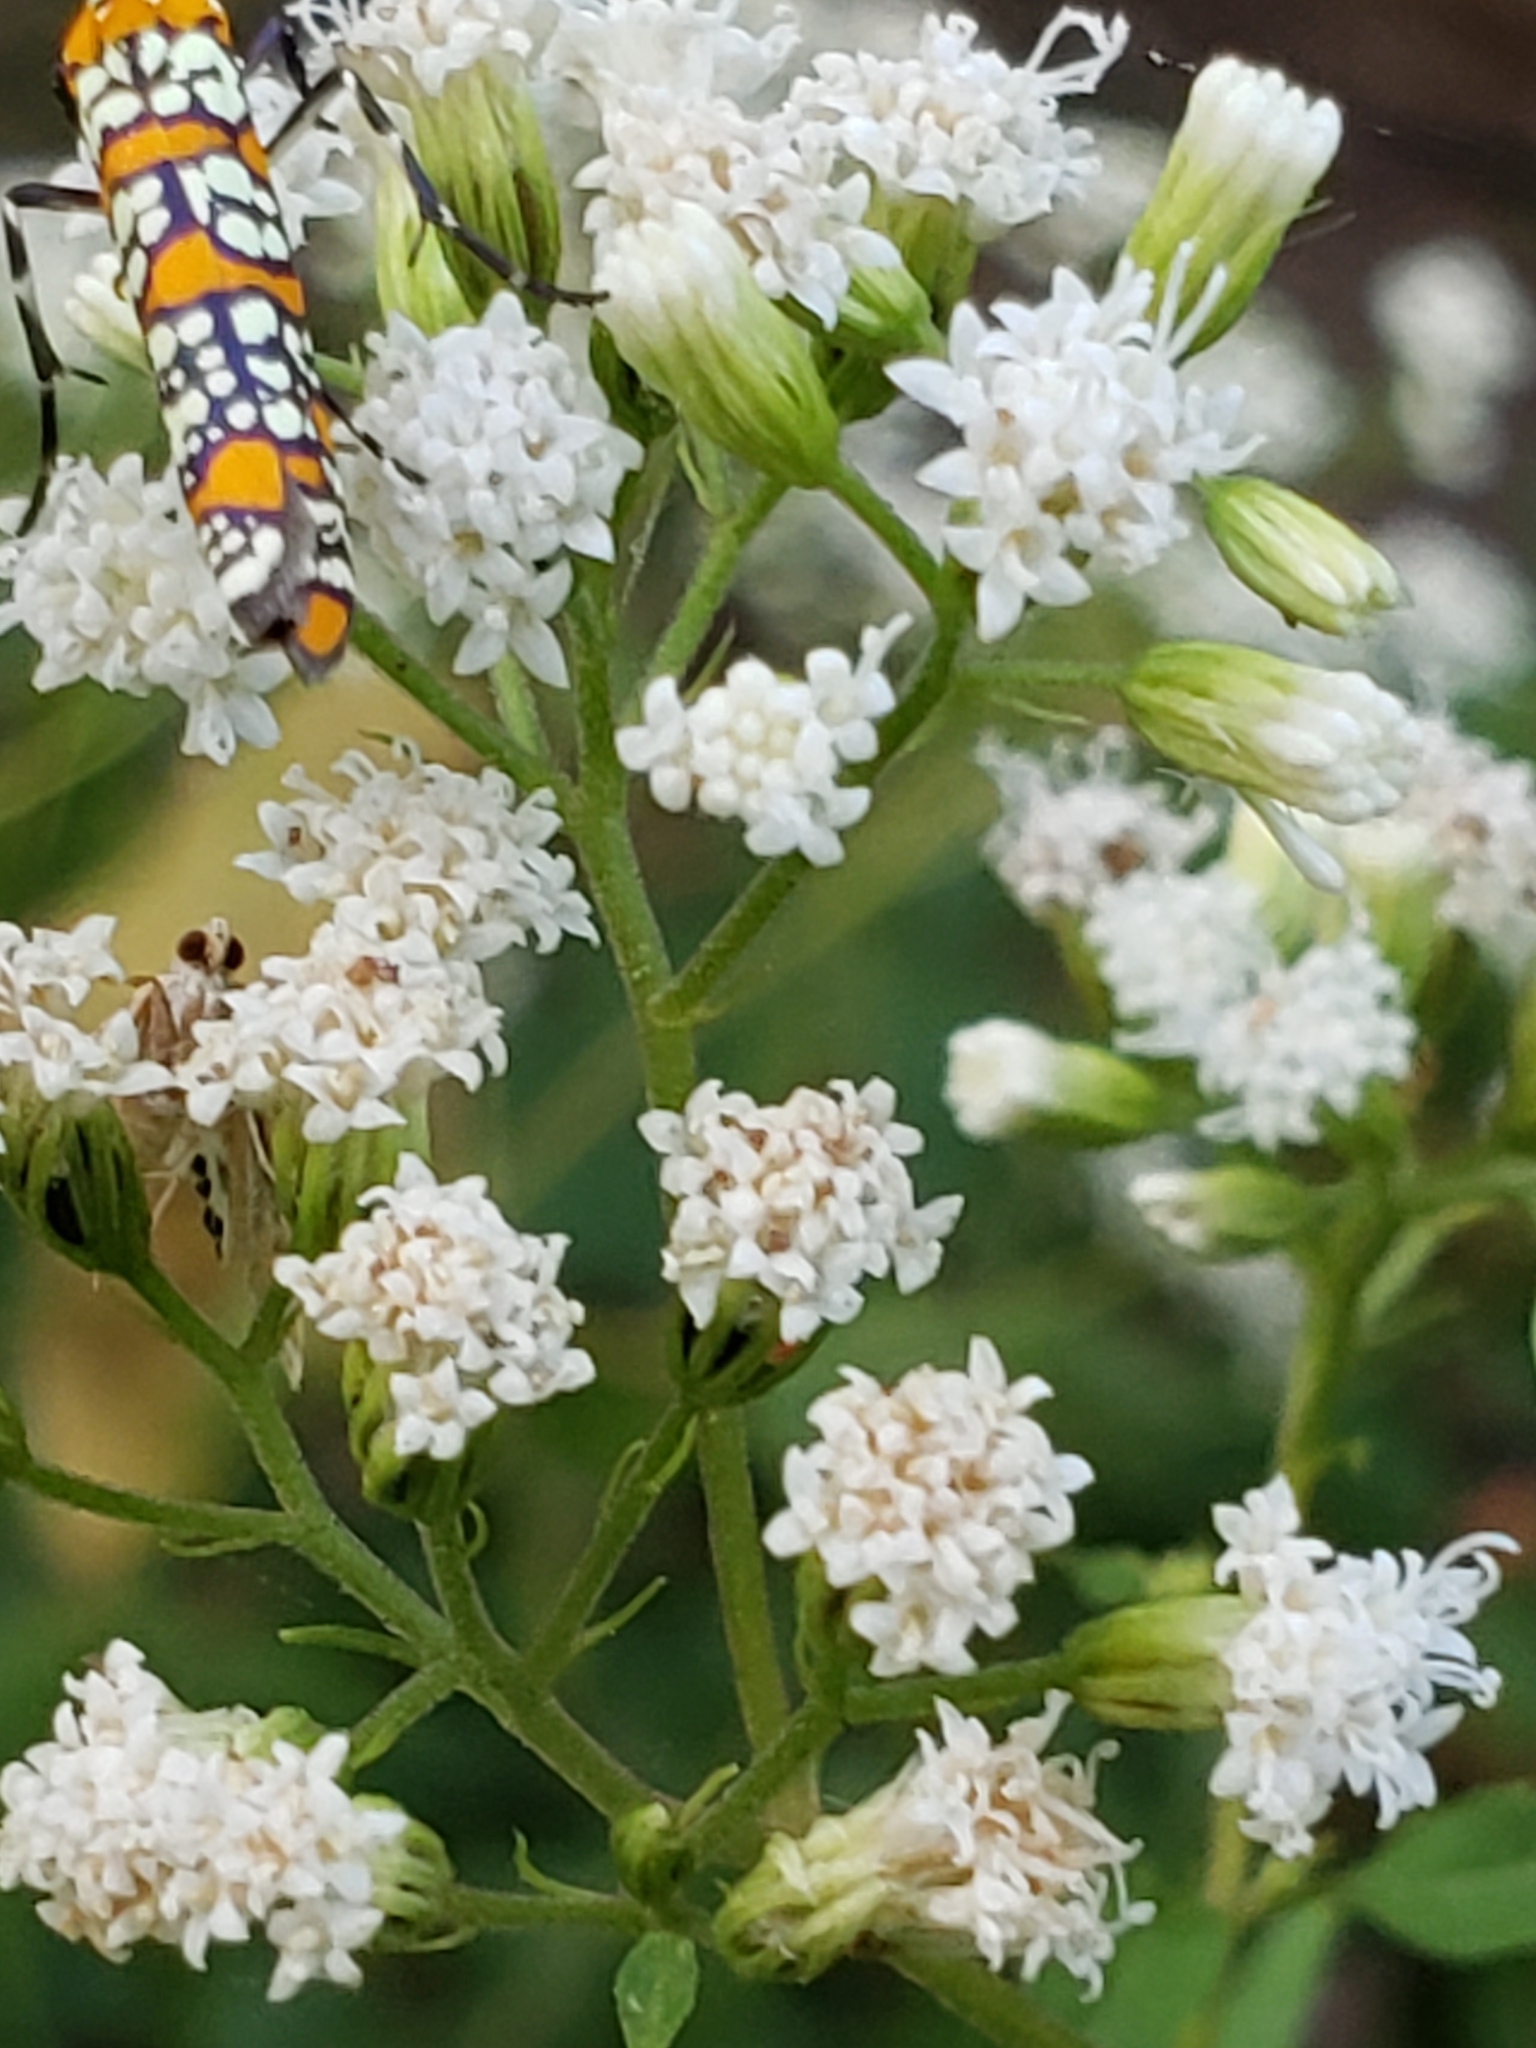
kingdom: Animalia
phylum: Arthropoda
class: Insecta
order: Lepidoptera
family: Attevidae
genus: Atteva
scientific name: Atteva punctella
